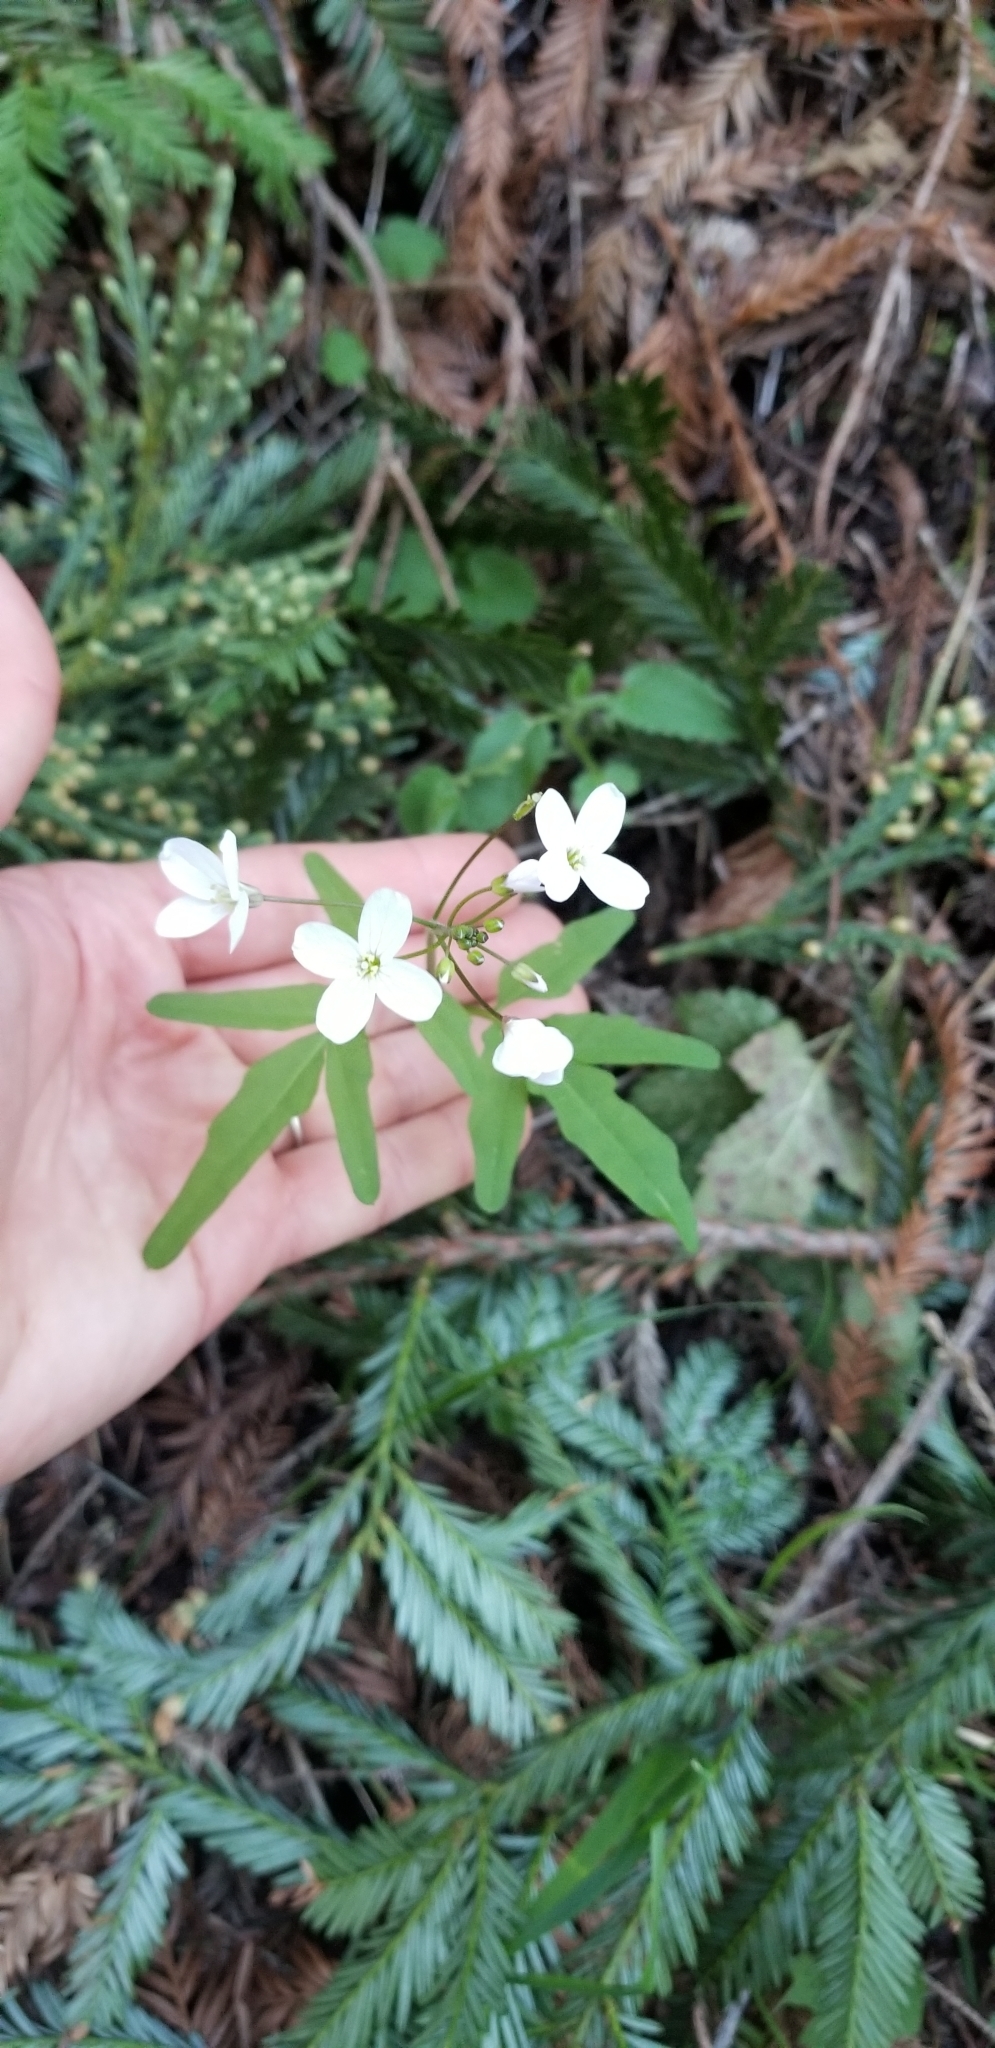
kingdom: Plantae
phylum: Tracheophyta
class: Magnoliopsida
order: Brassicales
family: Brassicaceae
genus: Cardamine
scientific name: Cardamine californica
